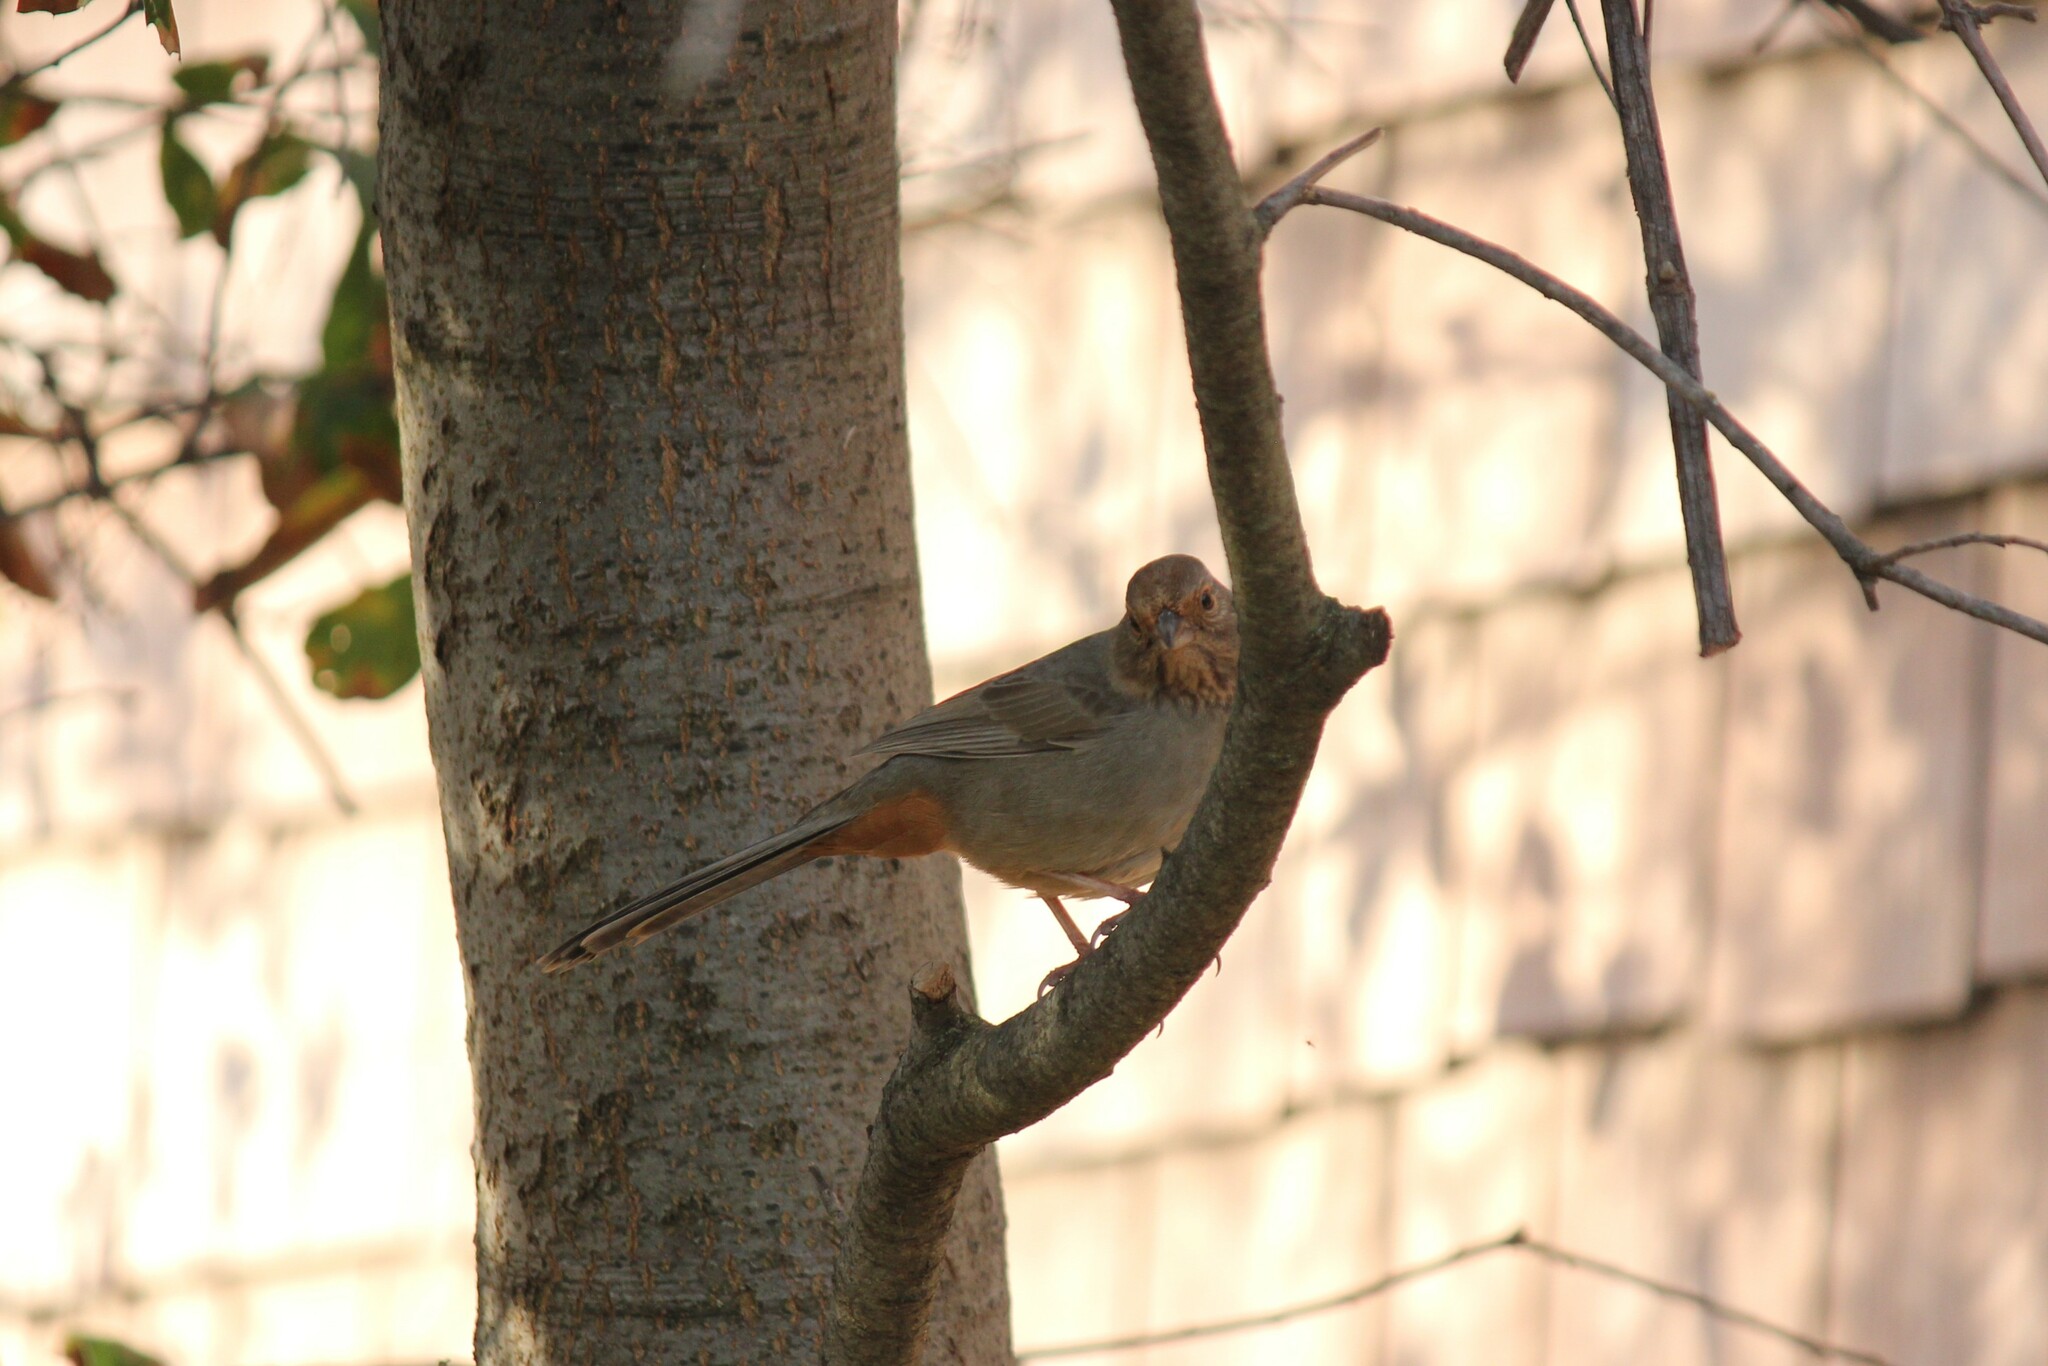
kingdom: Animalia
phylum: Chordata
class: Aves
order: Passeriformes
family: Passerellidae
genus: Melozone
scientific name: Melozone crissalis
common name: California towhee
